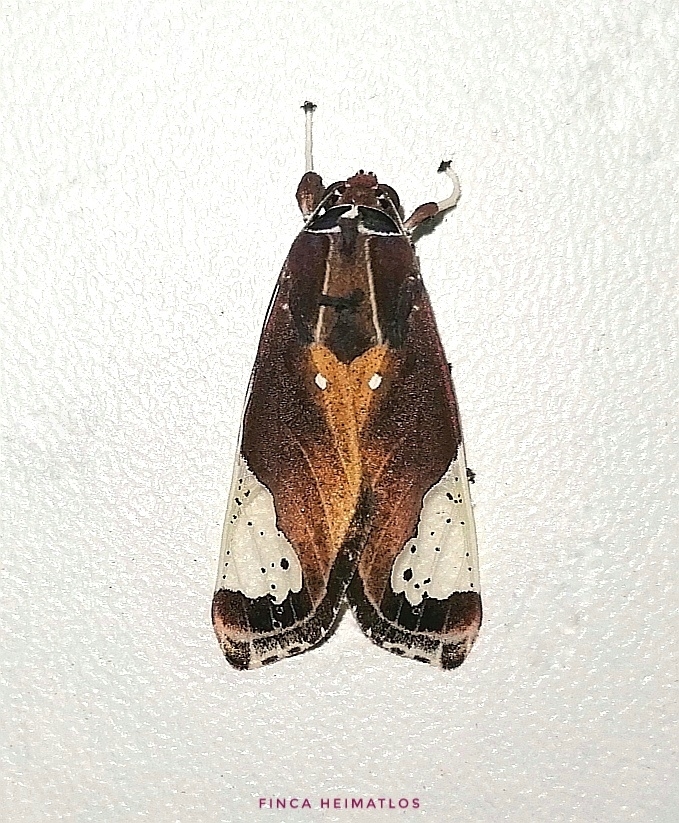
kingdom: Animalia
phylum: Arthropoda
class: Insecta
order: Lepidoptera
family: Erebidae
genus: Bertholdia
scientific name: Bertholdia flavidorsata
